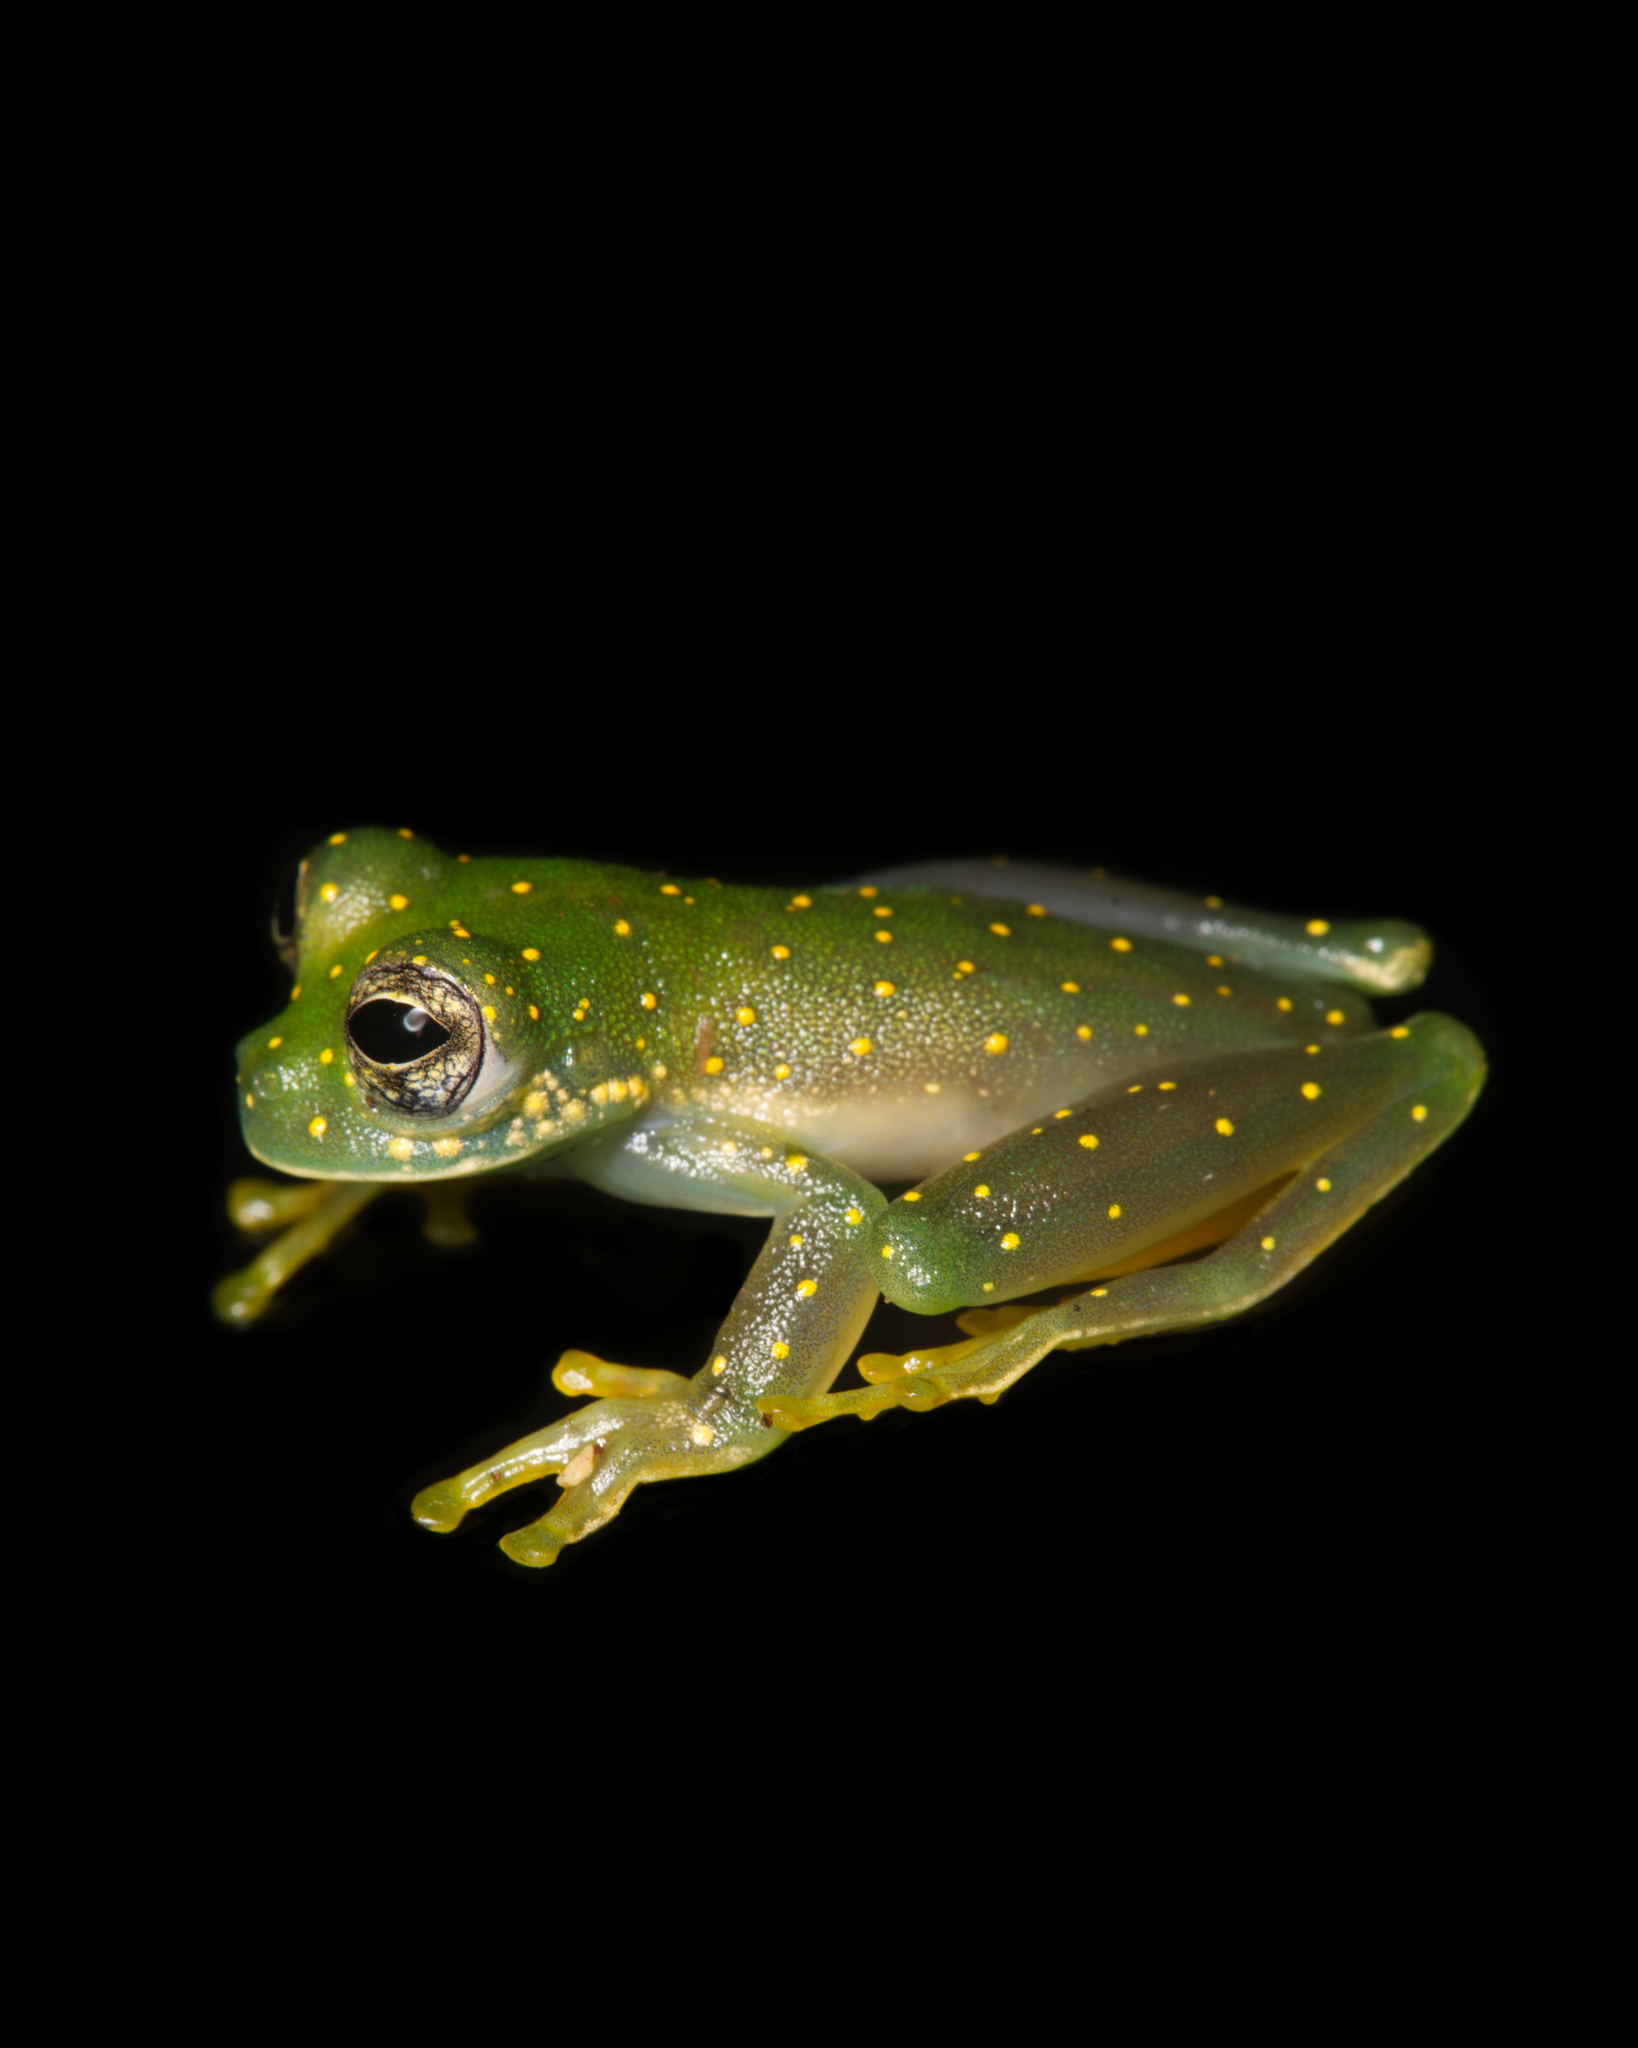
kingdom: Animalia
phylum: Chordata
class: Amphibia
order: Anura
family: Centrolenidae
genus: Sachatamia
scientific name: Sachatamia albomaculata
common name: Rana de cristal de cascada
